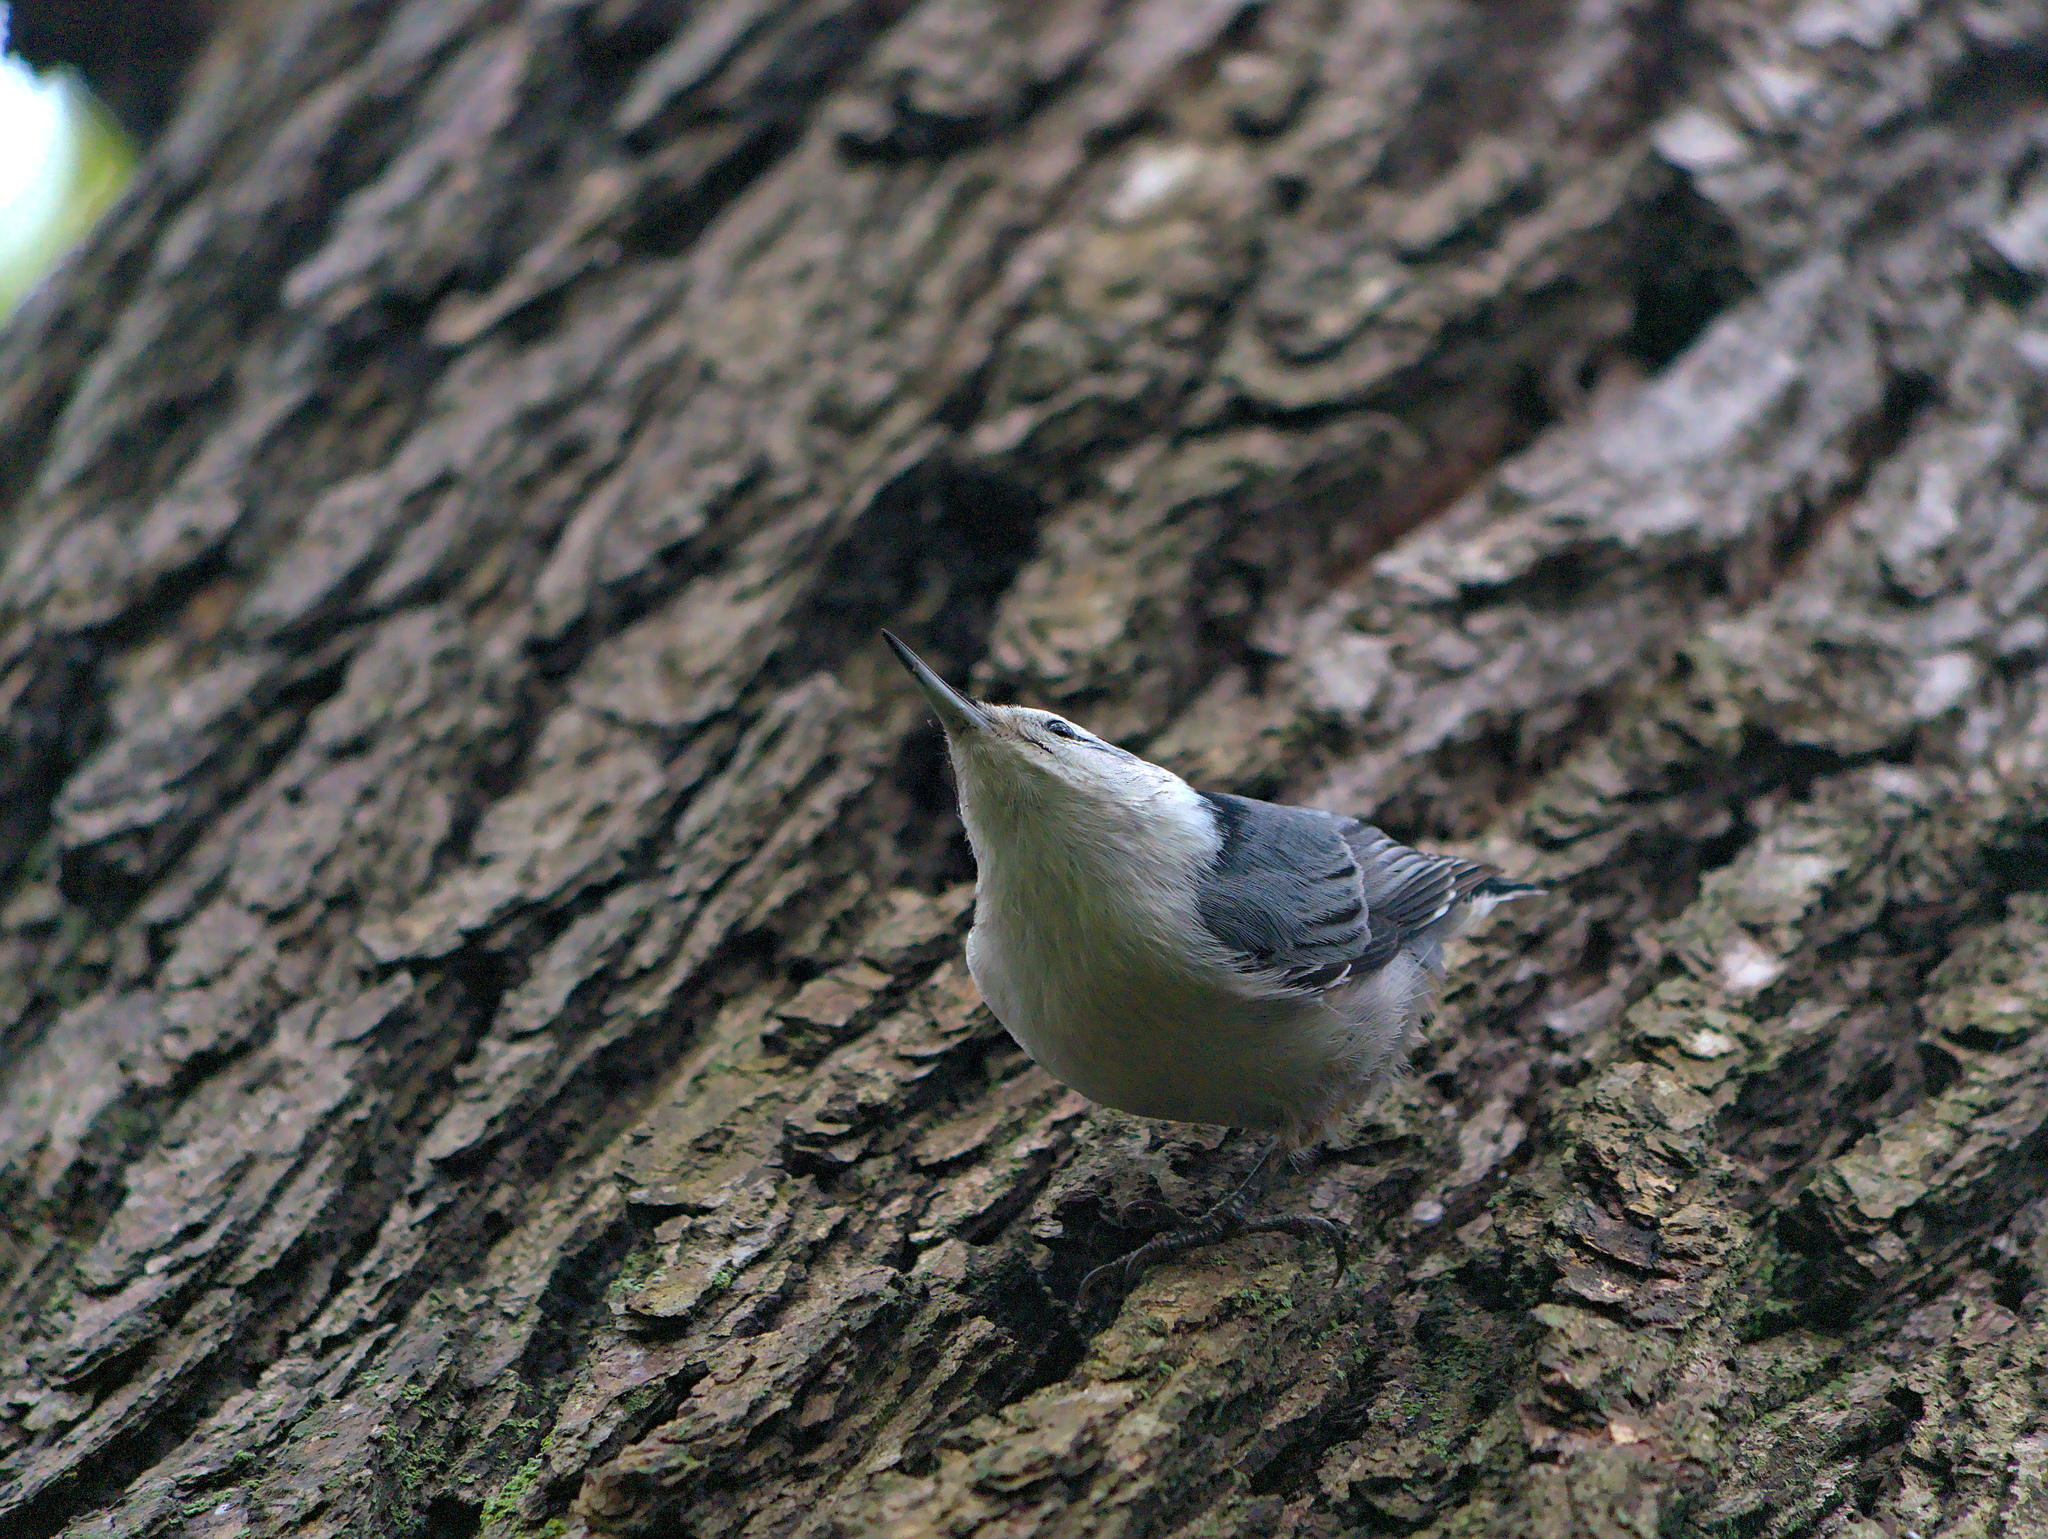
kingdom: Animalia
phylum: Chordata
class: Aves
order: Passeriformes
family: Sittidae
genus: Sitta
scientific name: Sitta carolinensis
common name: White-breasted nuthatch
